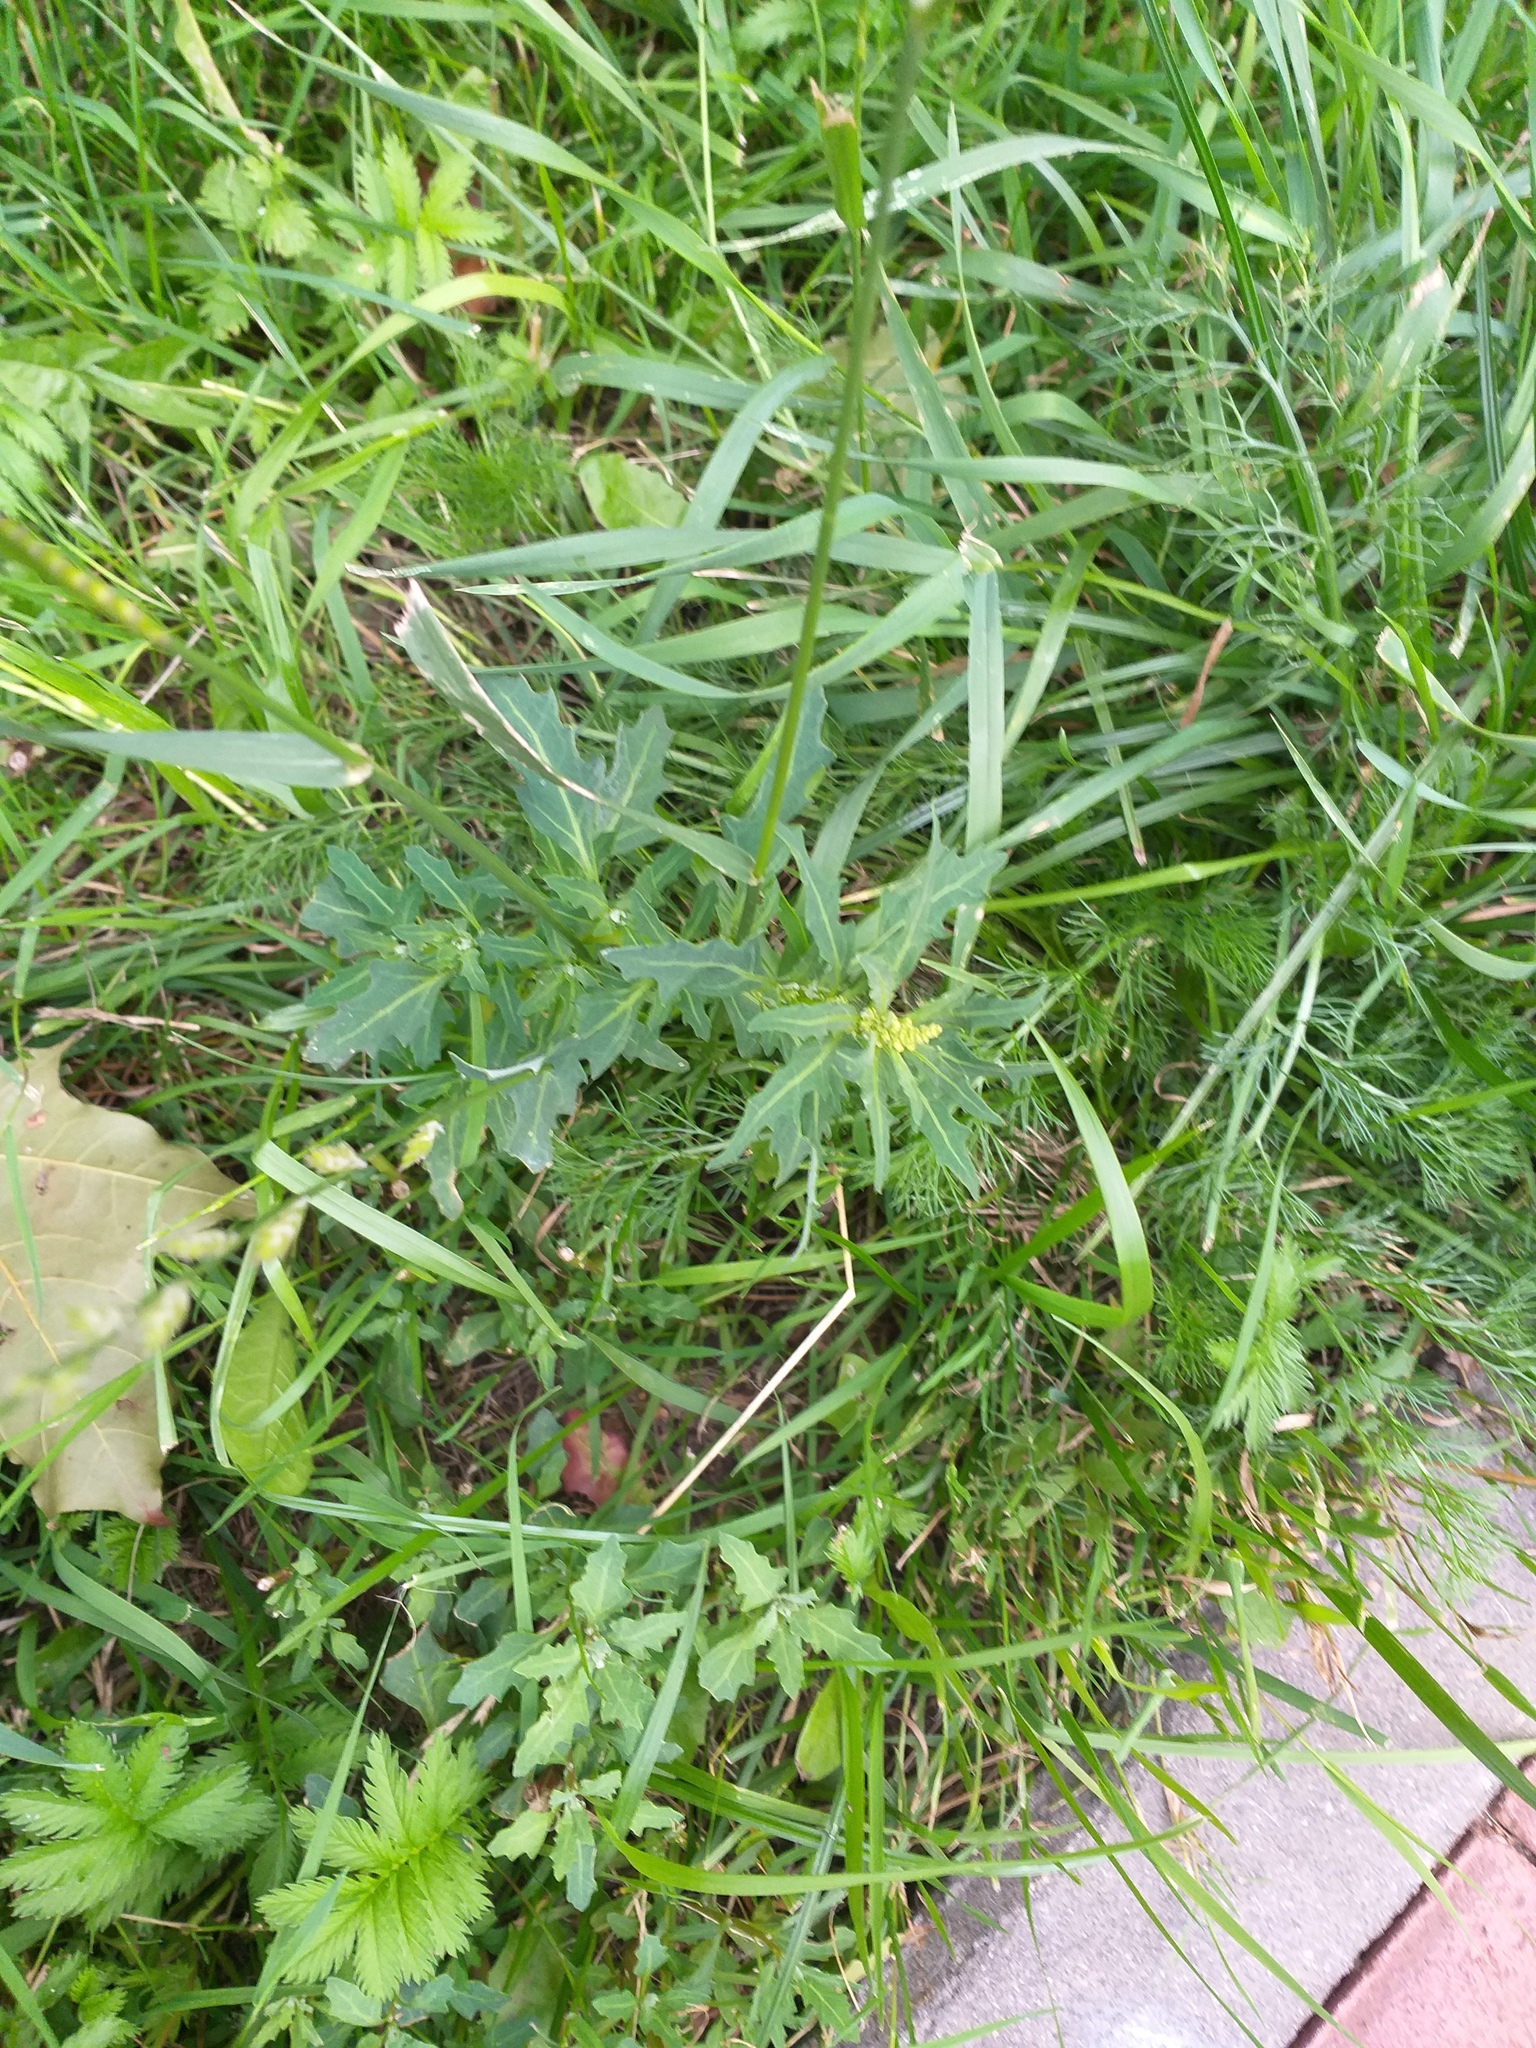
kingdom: Plantae
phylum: Tracheophyta
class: Magnoliopsida
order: Caryophyllales
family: Amaranthaceae
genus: Oxybasis
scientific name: Oxybasis glauca
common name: Glaucous goosefoot
